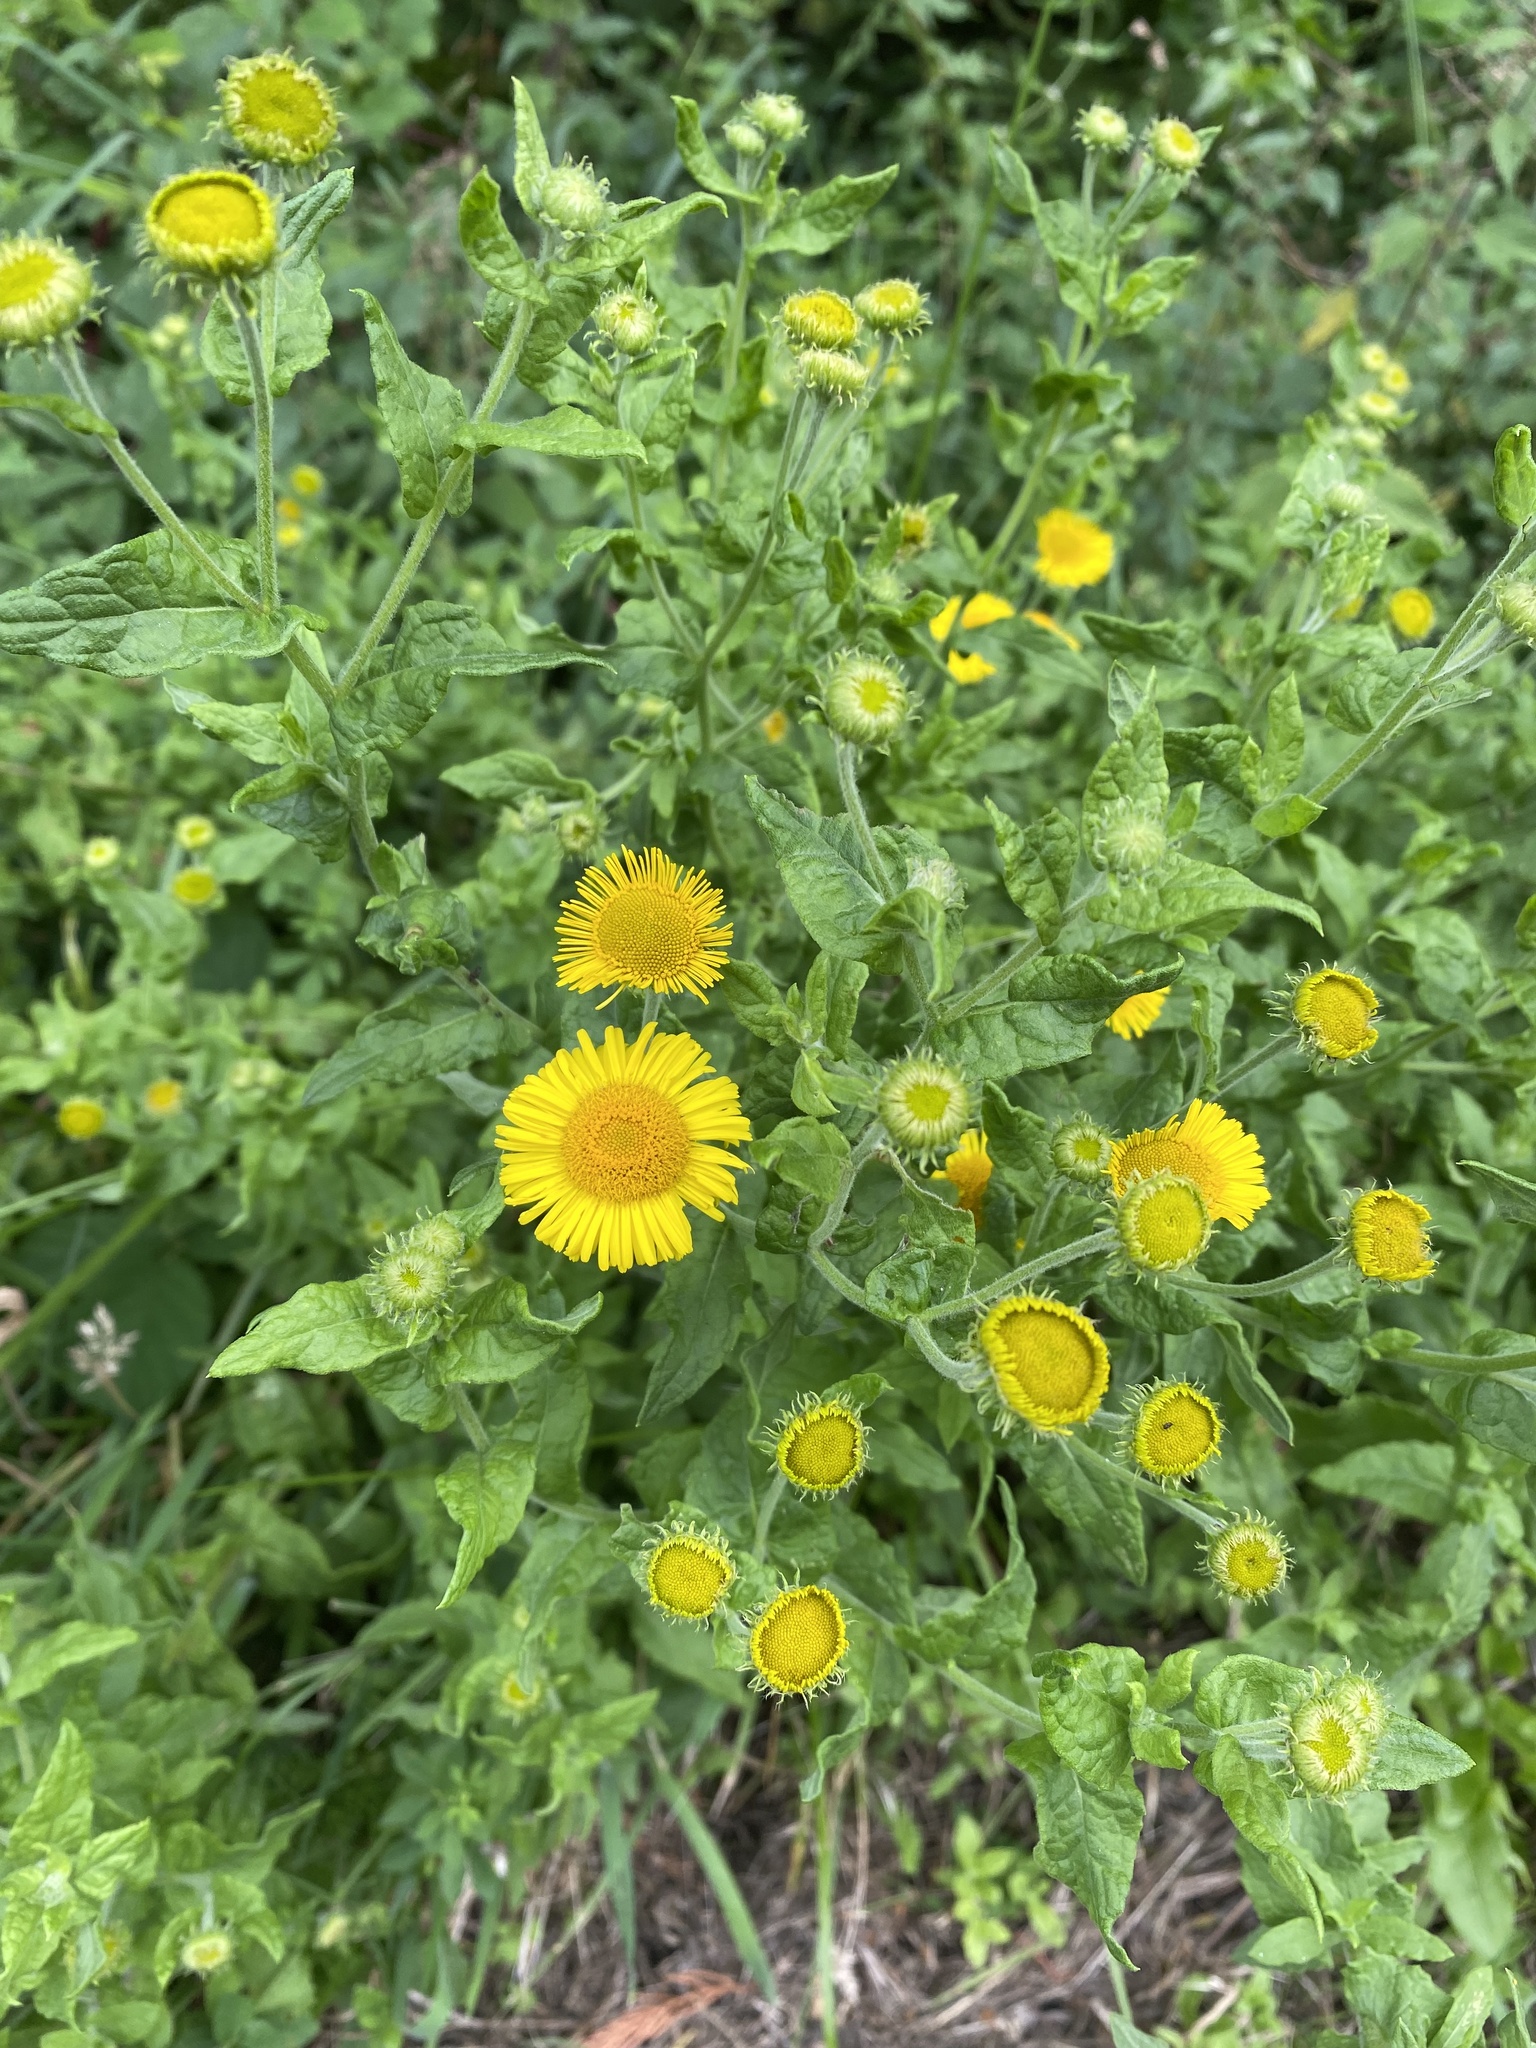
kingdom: Plantae
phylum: Tracheophyta
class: Magnoliopsida
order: Asterales
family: Asteraceae
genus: Pulicaria
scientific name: Pulicaria dysenterica
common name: Common fleabane
